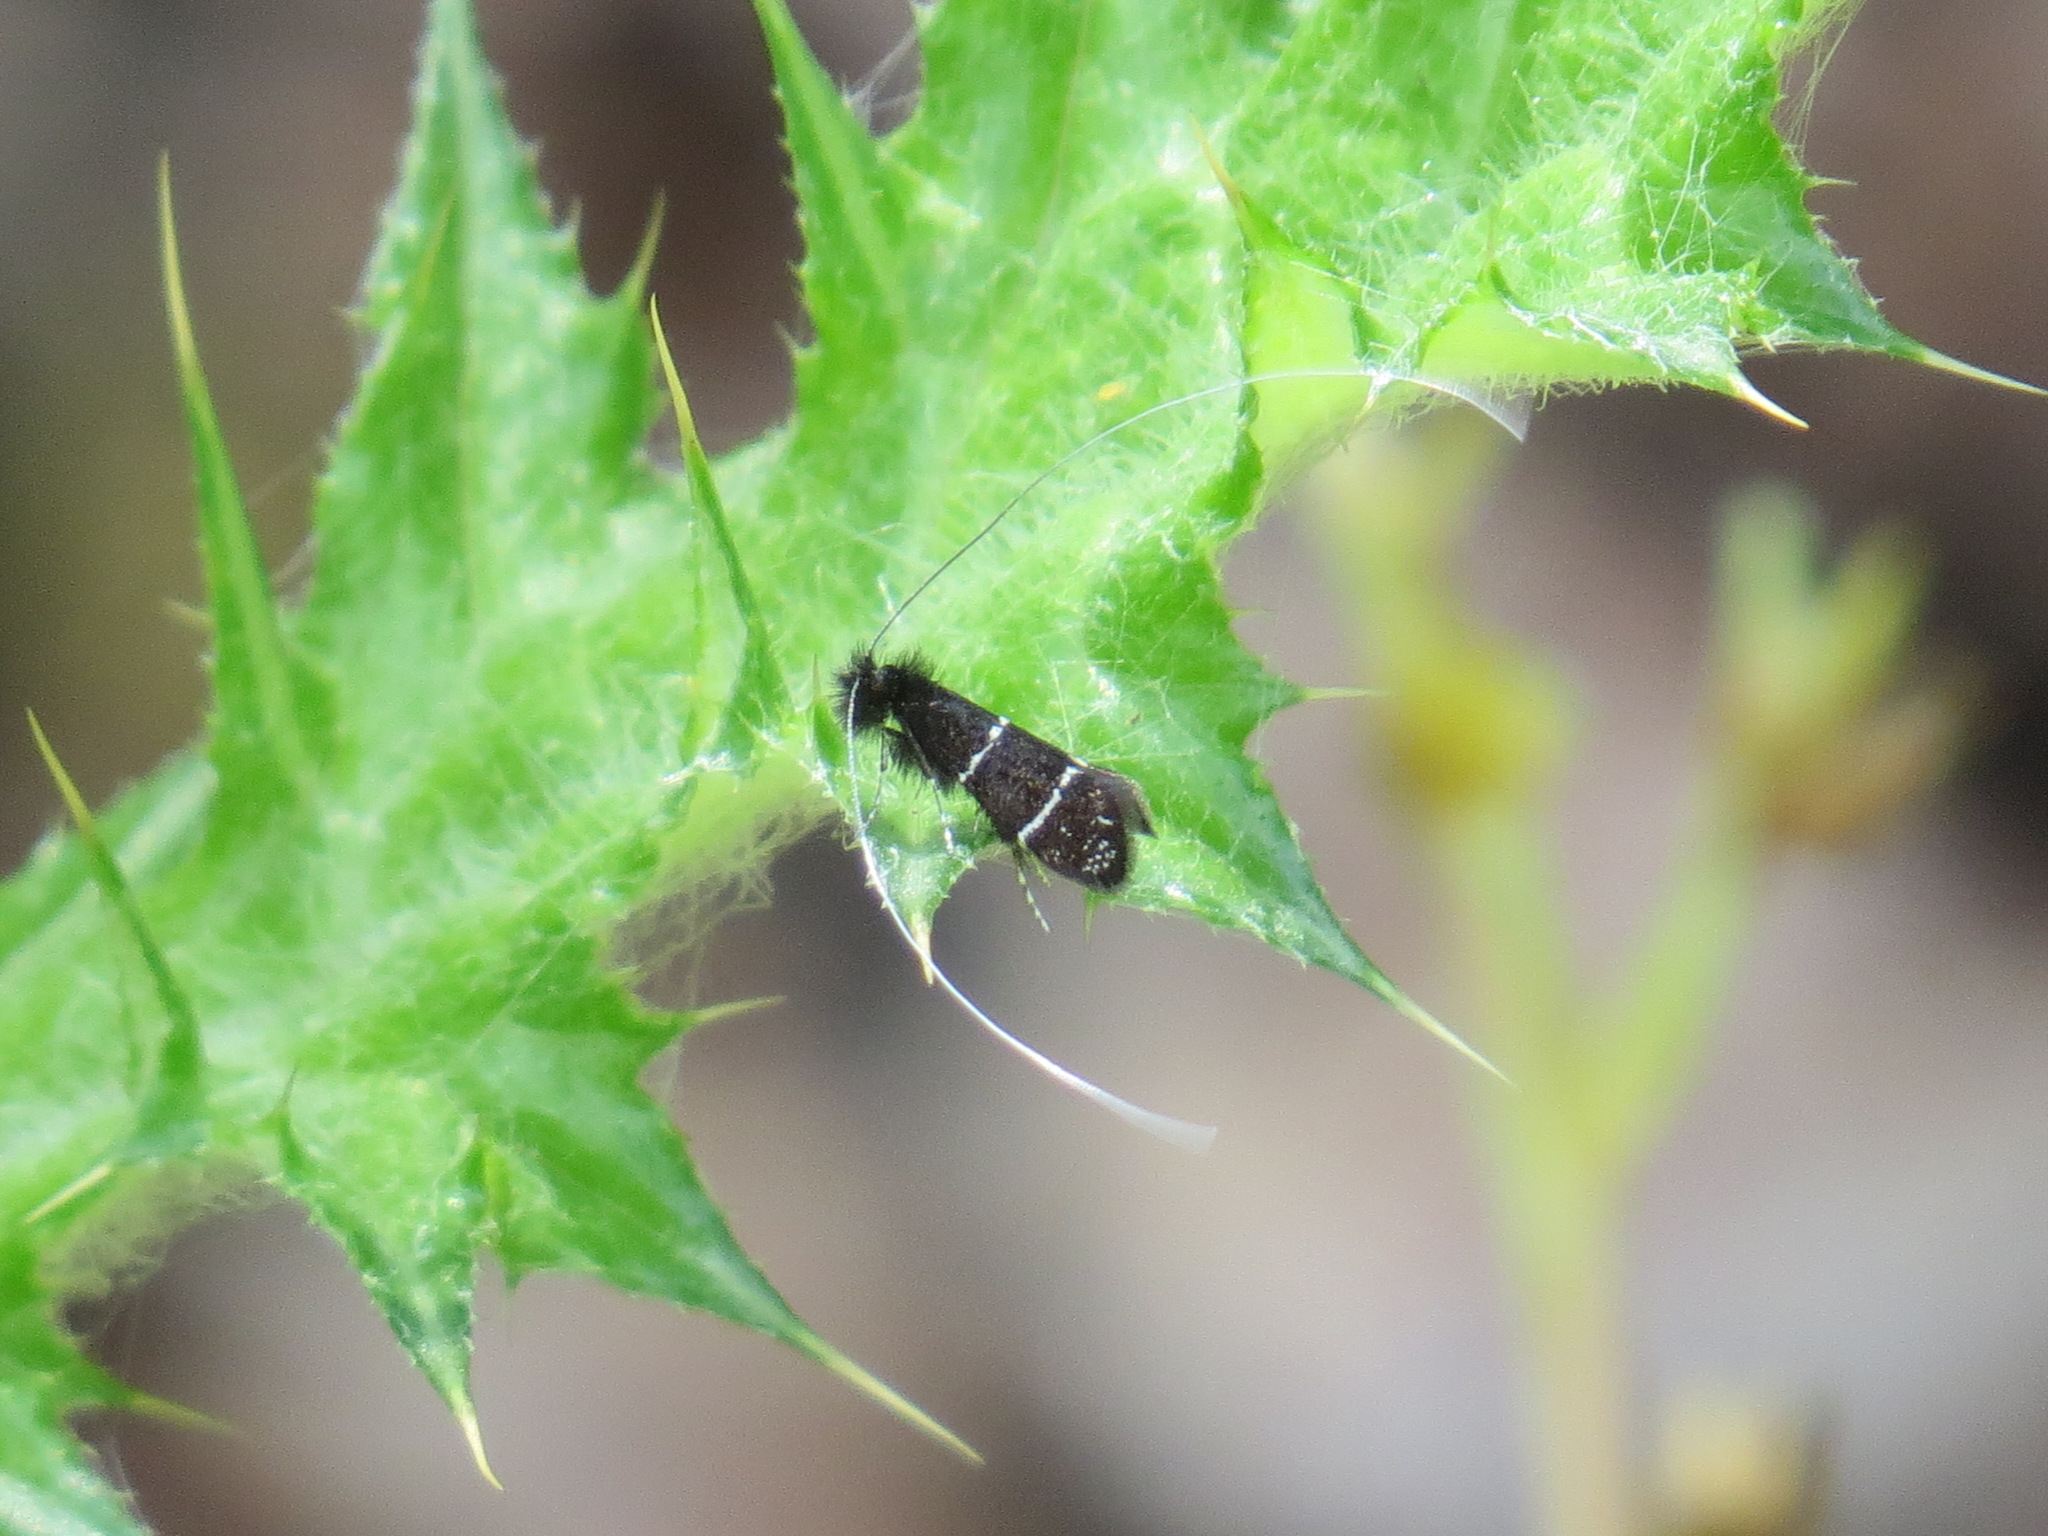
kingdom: Animalia
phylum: Arthropoda
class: Insecta
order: Lepidoptera
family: Adelidae
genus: Adela
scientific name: Adela septentrionella
